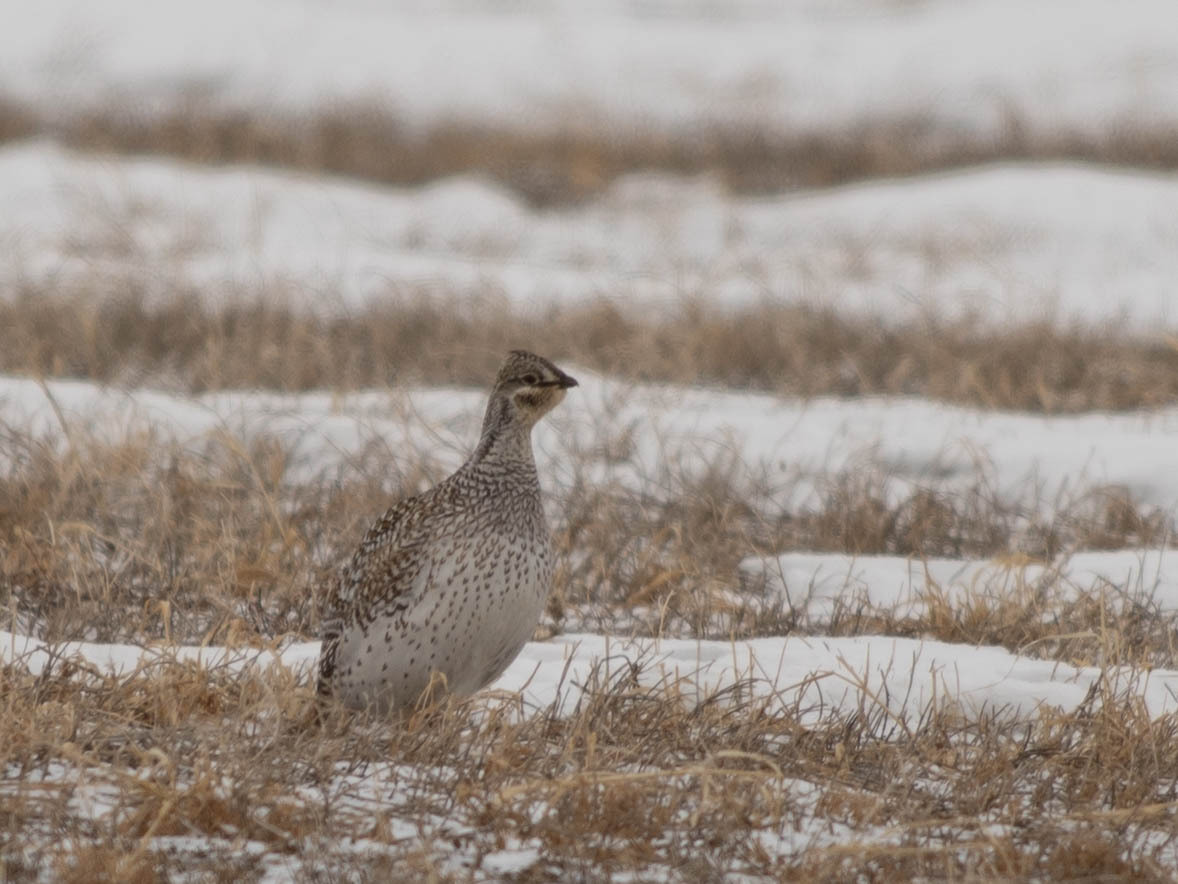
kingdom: Animalia
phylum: Chordata
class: Aves
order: Galliformes
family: Phasianidae
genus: Tympanuchus
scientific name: Tympanuchus phasianellus
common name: Sharp-tailed grouse
